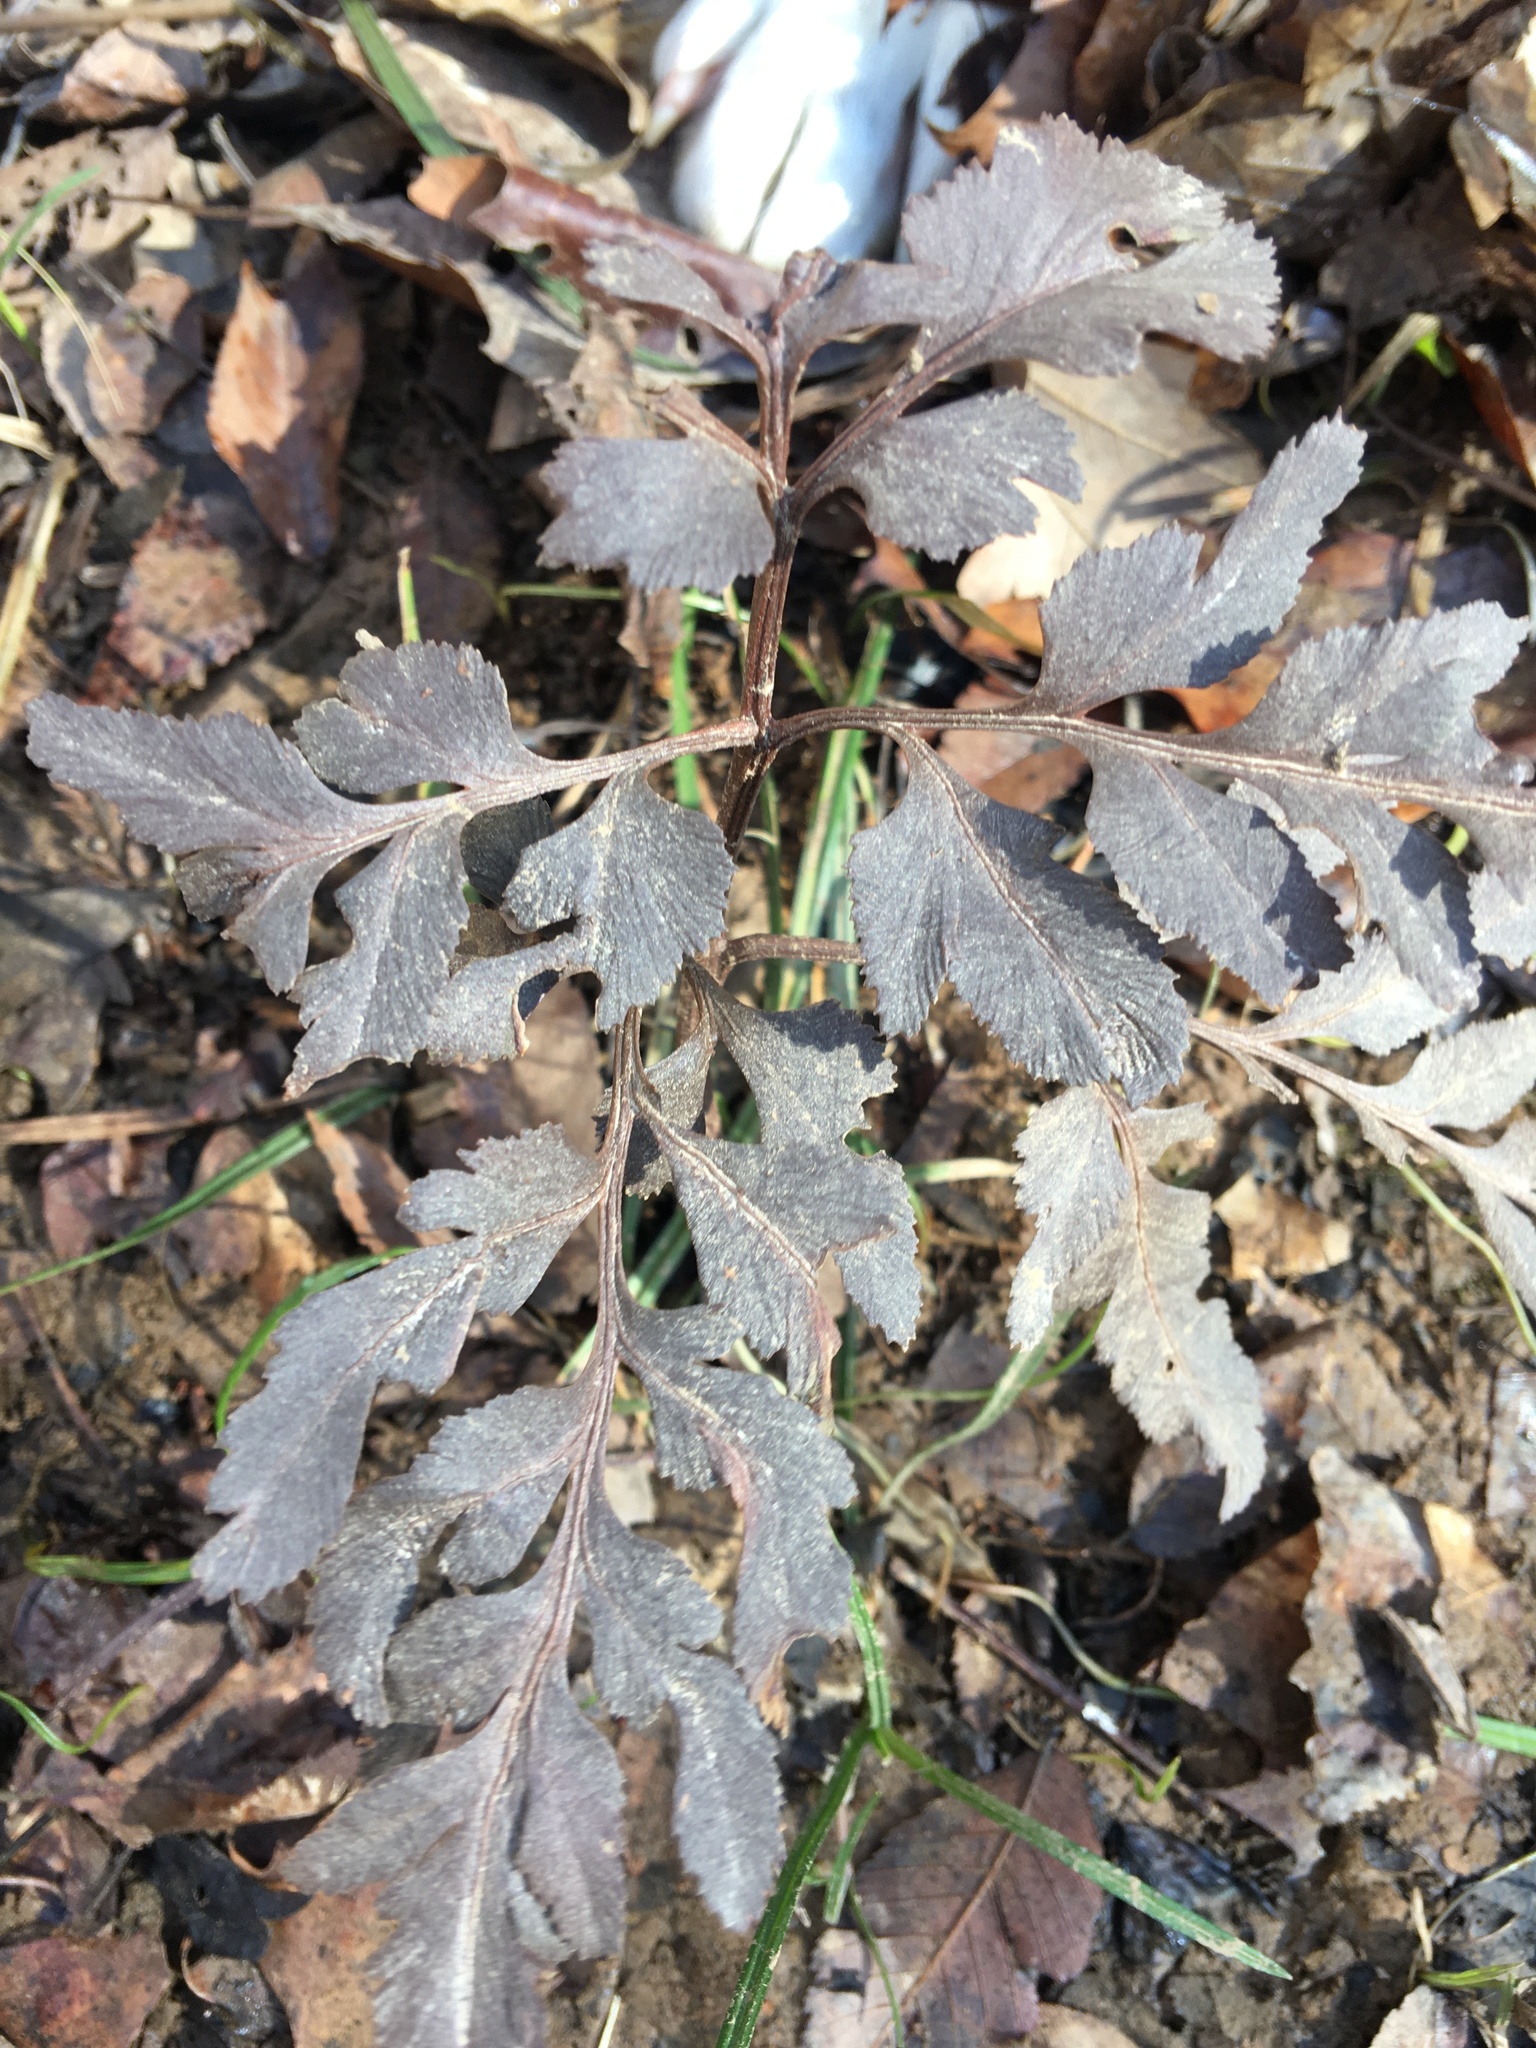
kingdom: Plantae
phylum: Tracheophyta
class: Polypodiopsida
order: Ophioglossales
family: Ophioglossaceae
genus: Sceptridium
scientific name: Sceptridium dissectum
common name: Cut-leaved grapefern
